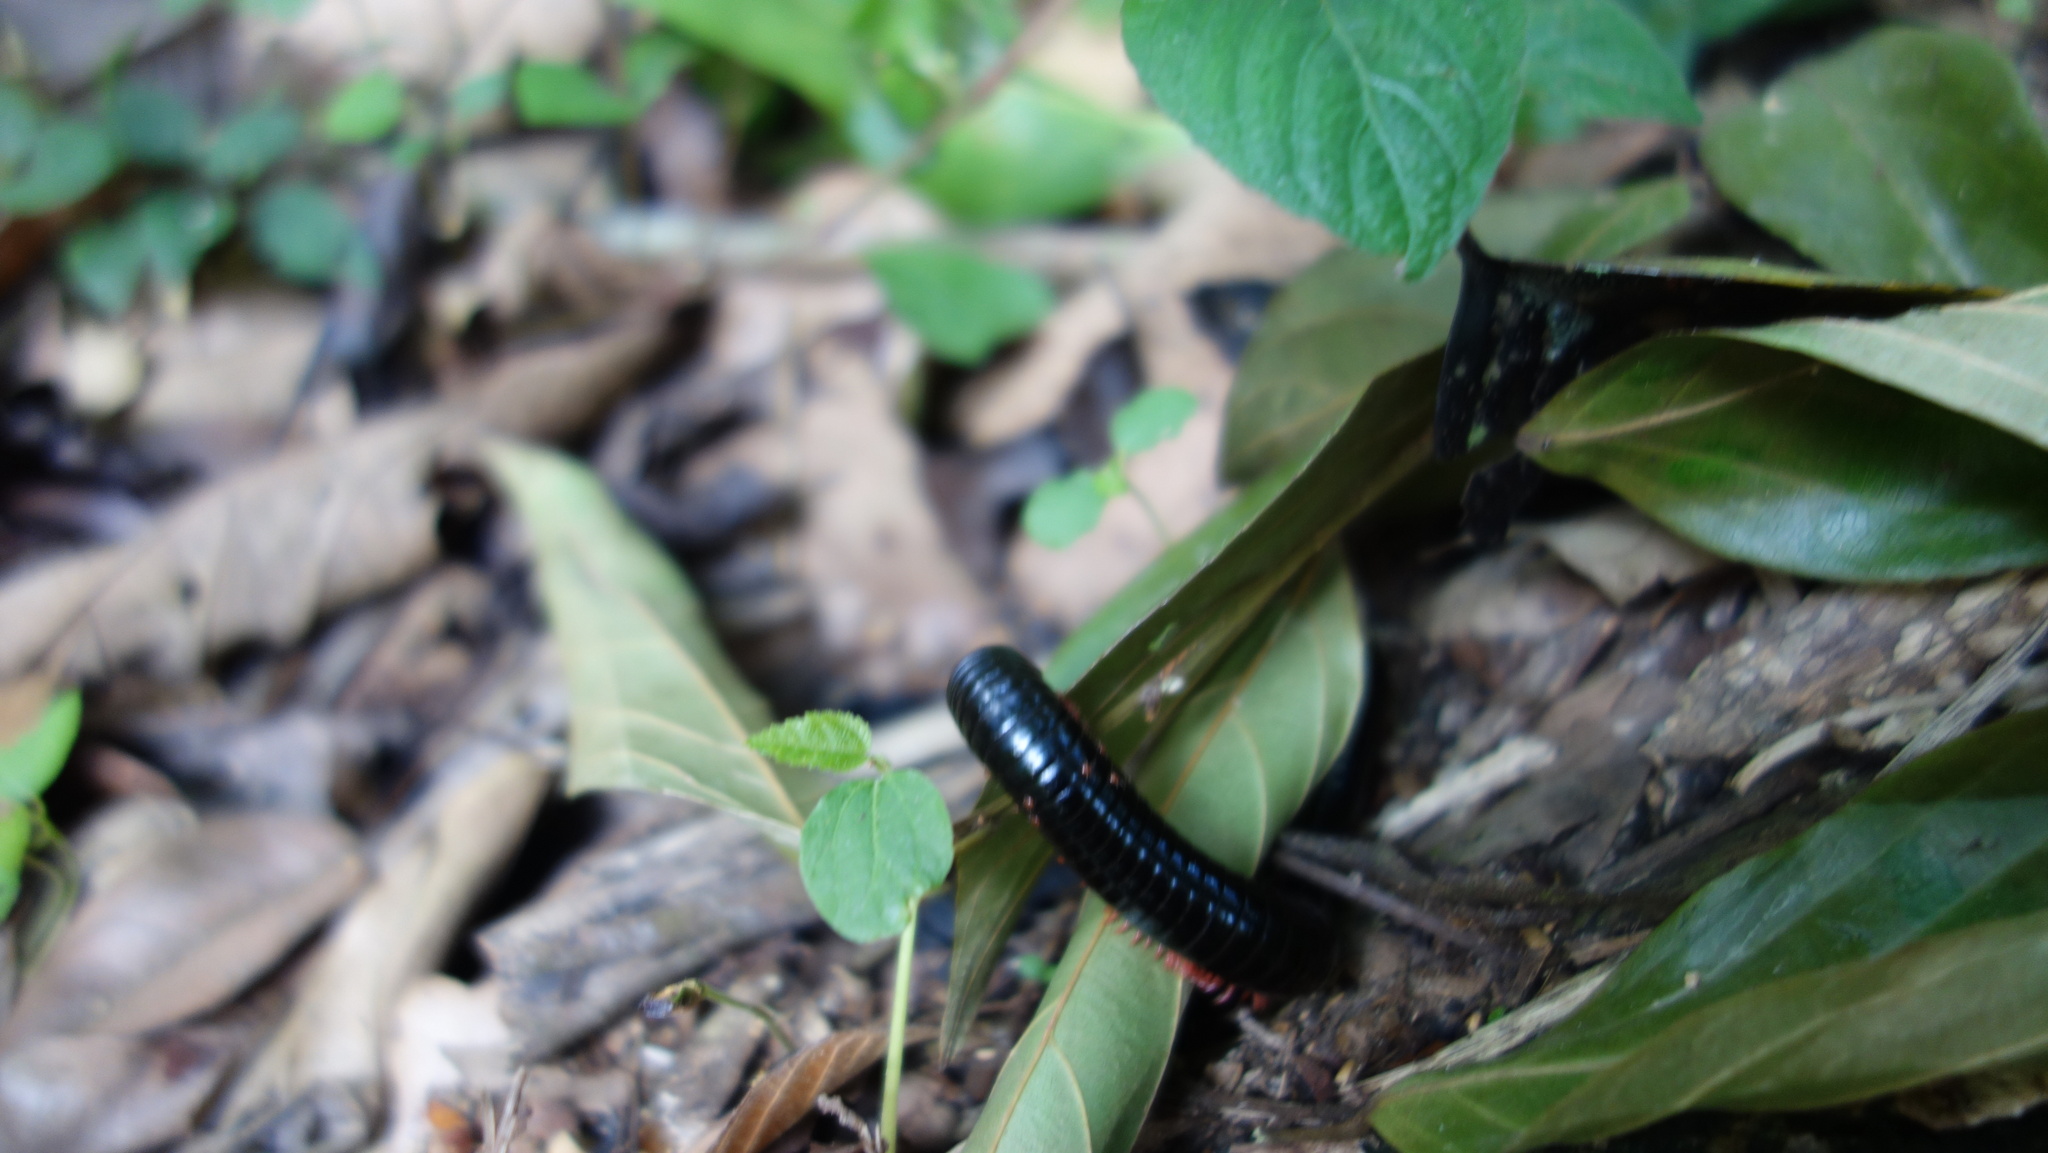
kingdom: Animalia
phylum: Arthropoda
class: Diplopoda
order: Spirostreptida
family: Harpagophoridae
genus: Phyllogonostreptus
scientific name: Phyllogonostreptus nigrolabiatus
